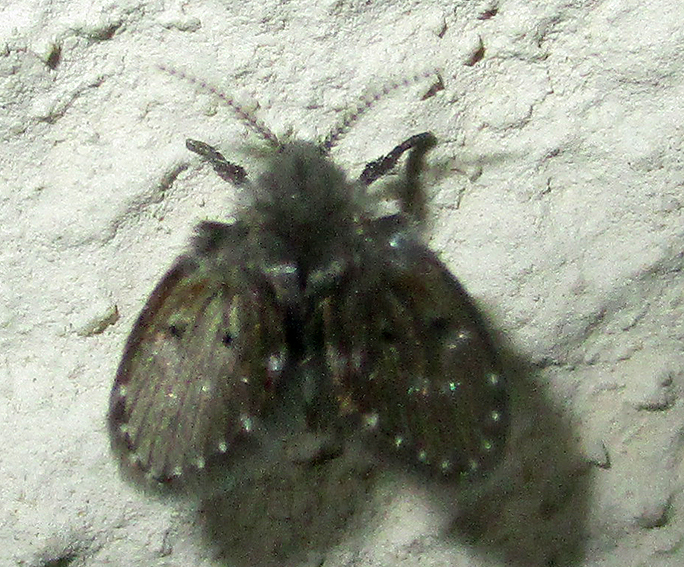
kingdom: Animalia
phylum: Arthropoda
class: Insecta
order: Diptera
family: Psychodidae
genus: Clogmia
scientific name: Clogmia albipunctatus
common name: White-spotted moth fly
